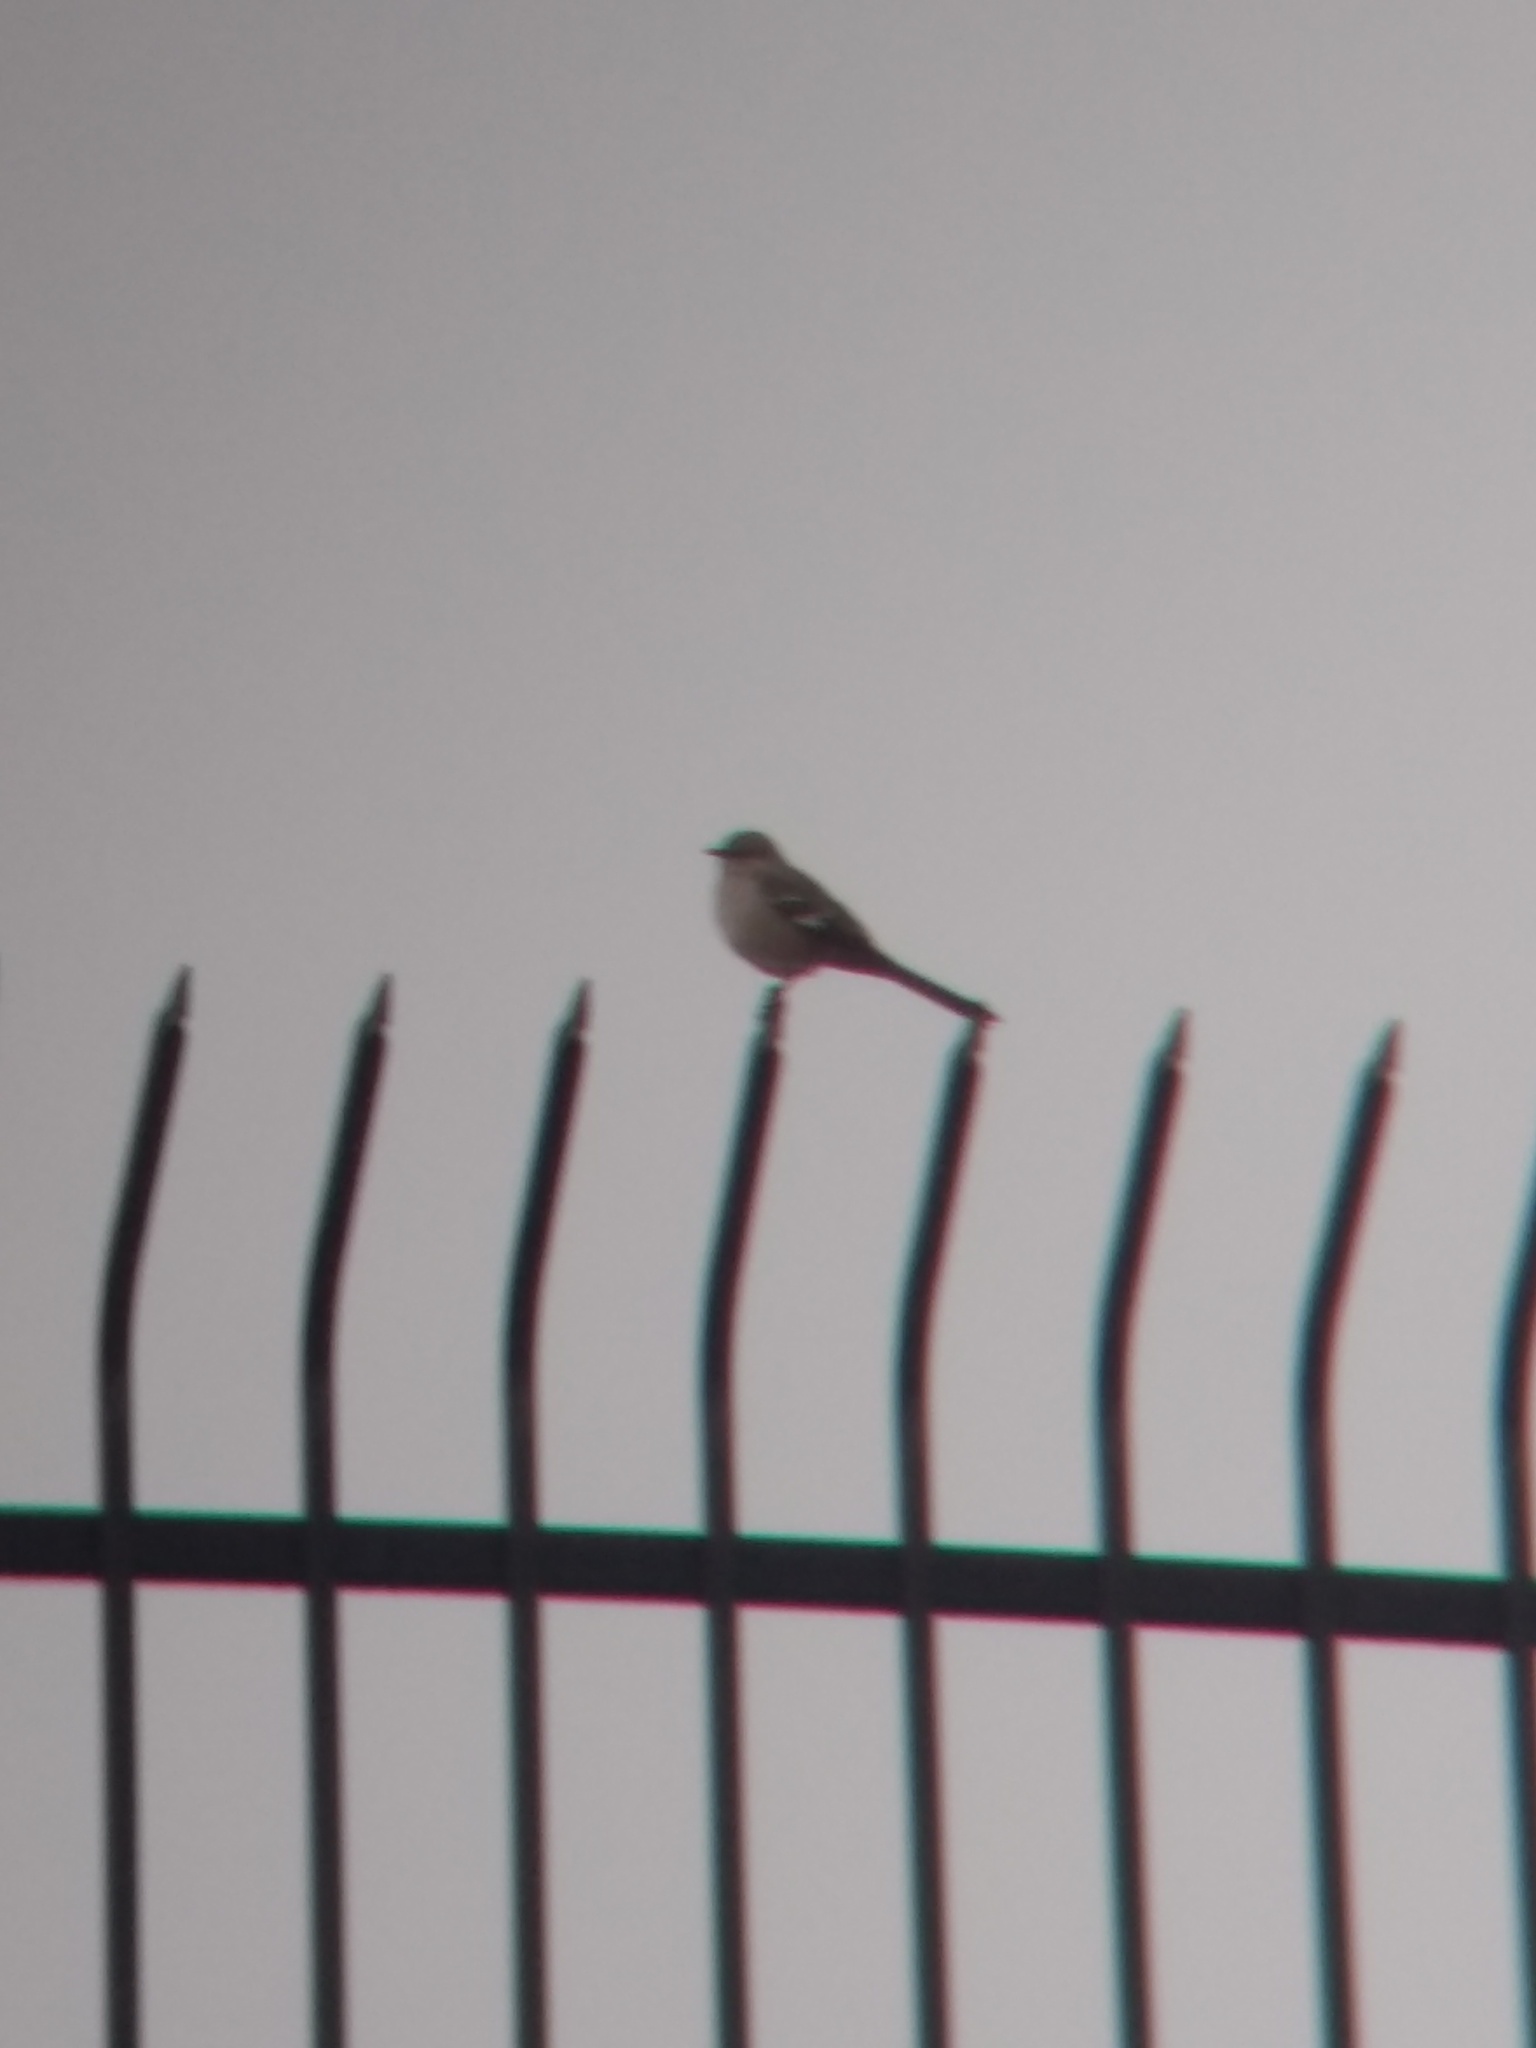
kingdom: Animalia
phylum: Chordata
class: Aves
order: Passeriformes
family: Mimidae
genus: Mimus
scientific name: Mimus polyglottos
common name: Northern mockingbird
